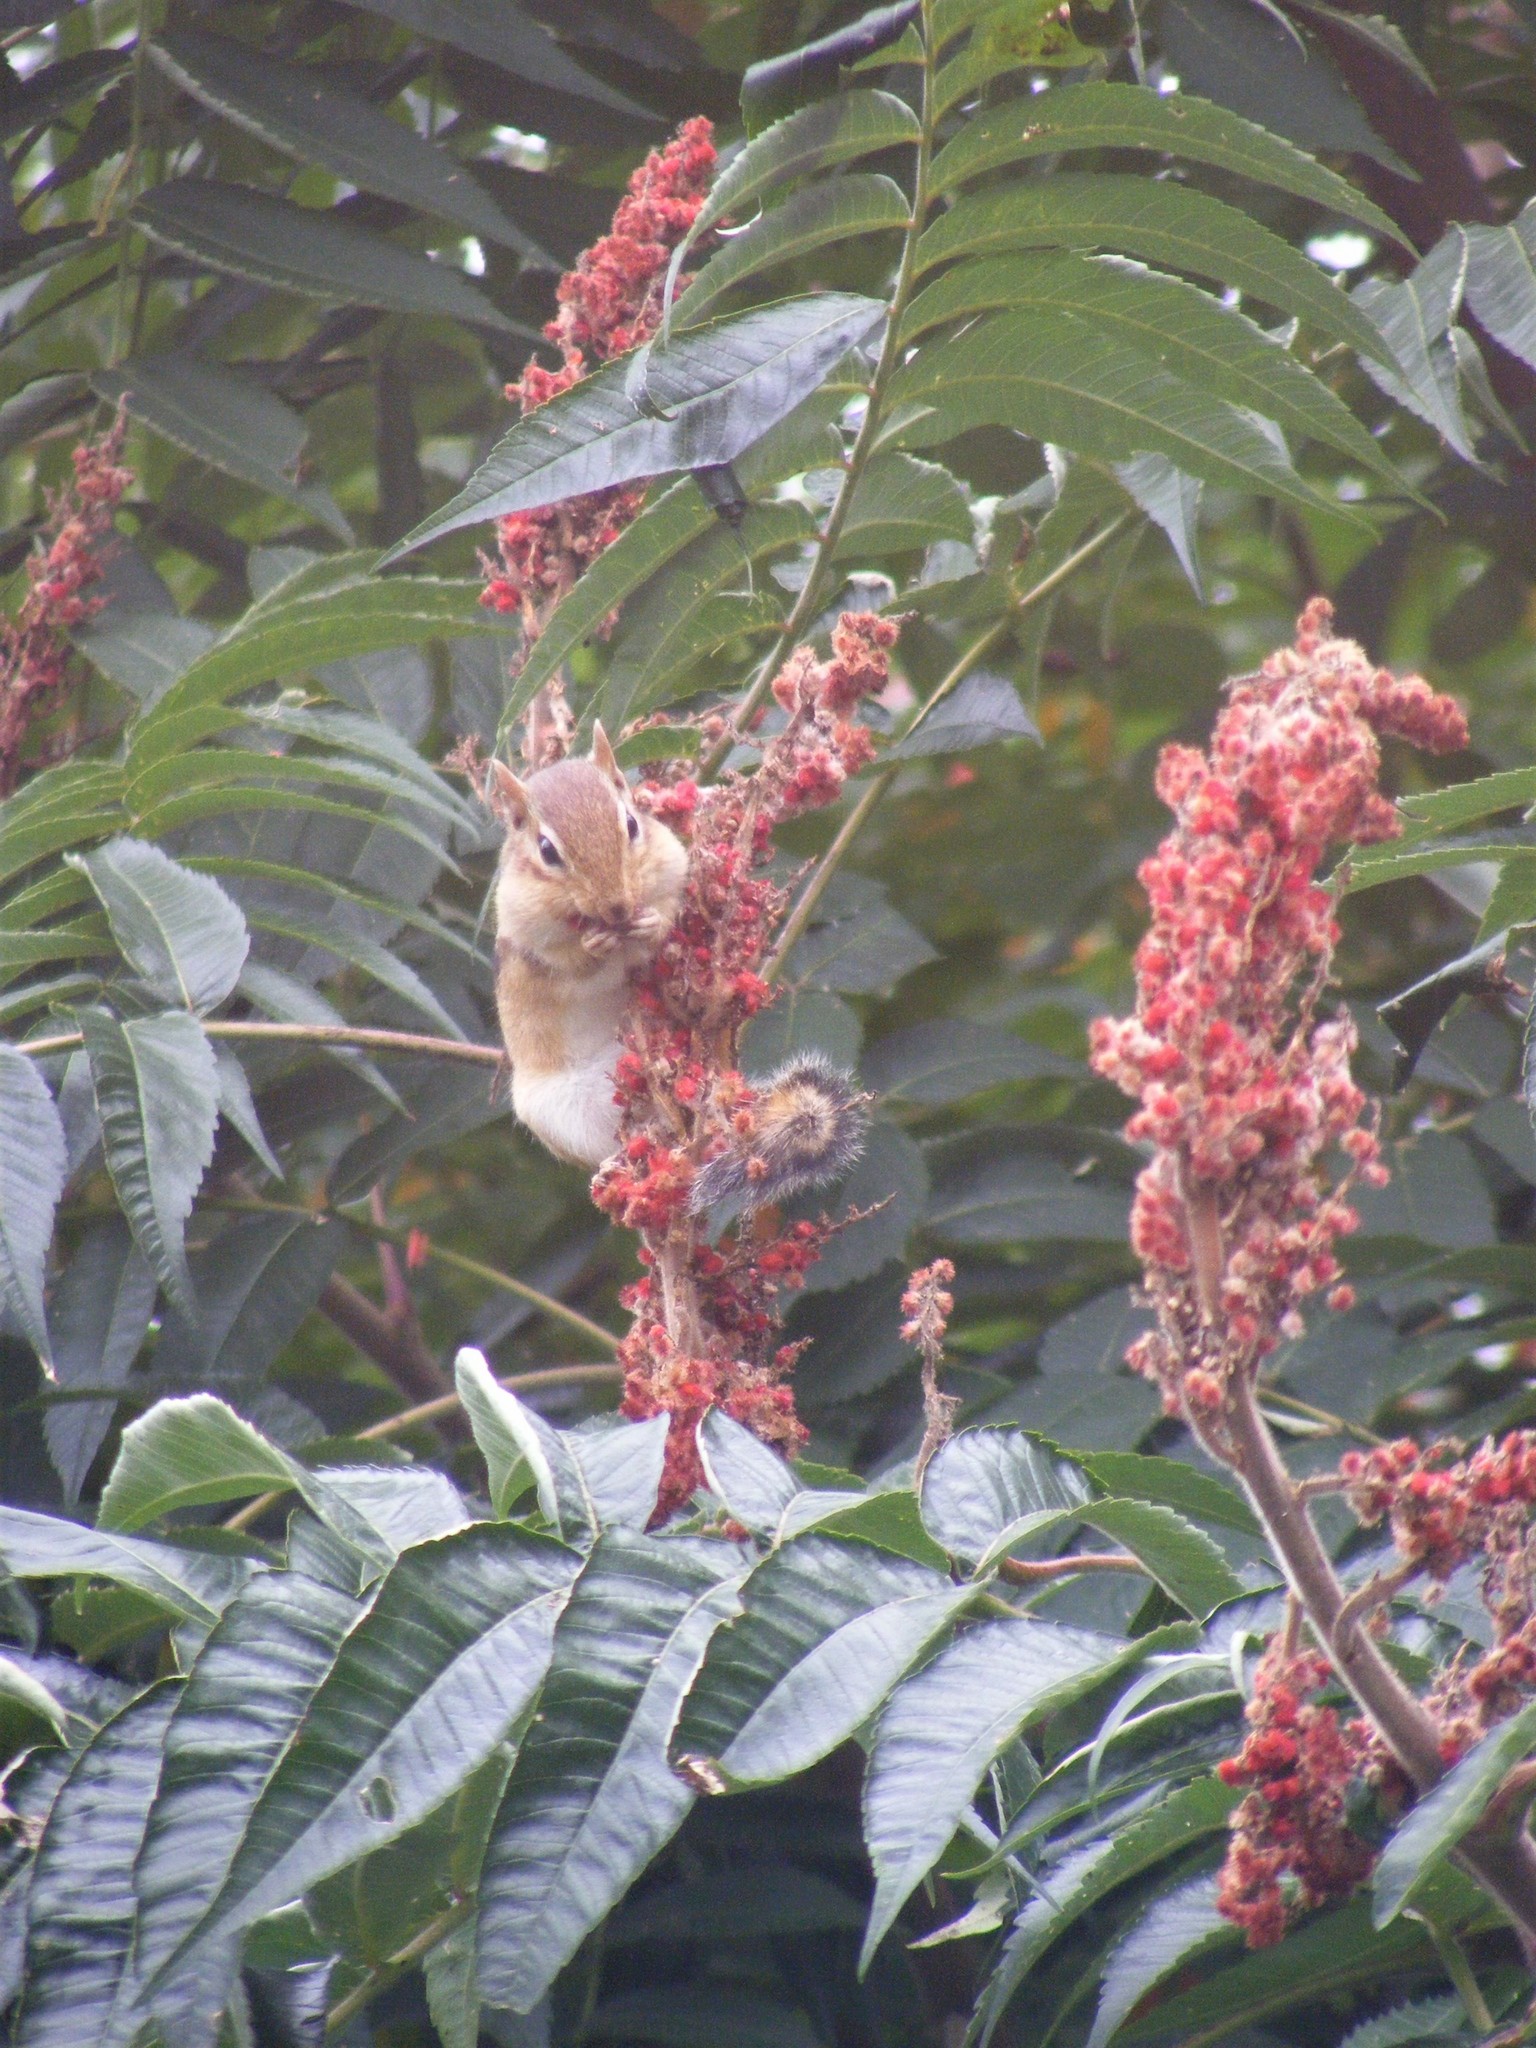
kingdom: Animalia
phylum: Chordata
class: Mammalia
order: Rodentia
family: Sciuridae
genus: Tamias
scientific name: Tamias striatus
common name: Eastern chipmunk
